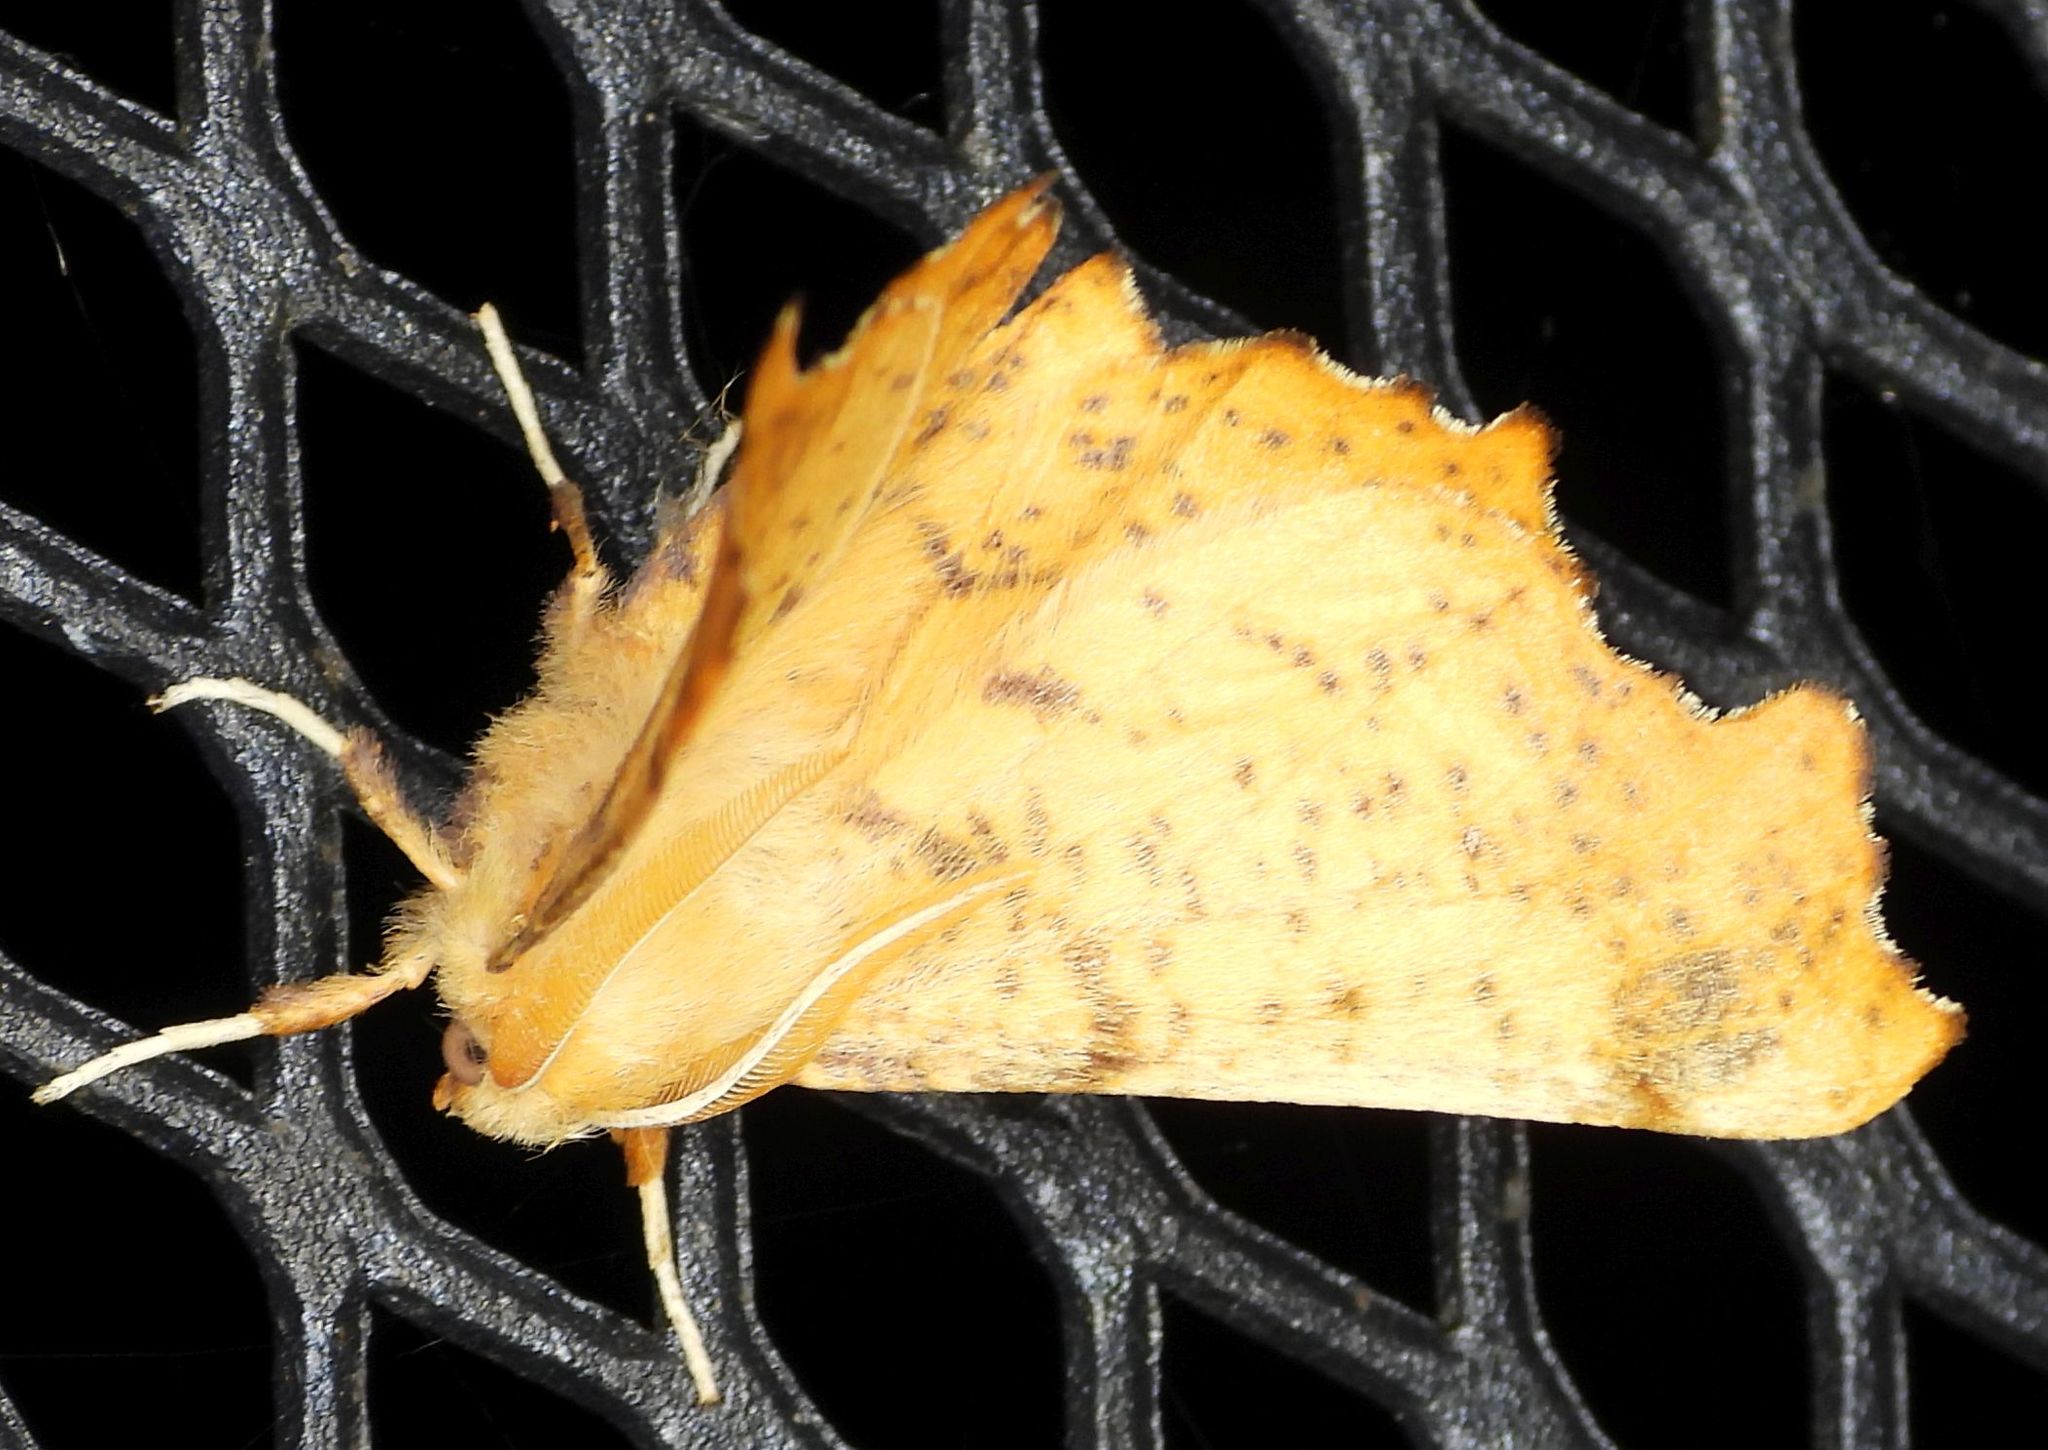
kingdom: Animalia
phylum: Arthropoda
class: Insecta
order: Lepidoptera
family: Geometridae
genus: Ennomos
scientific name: Ennomos magnaria
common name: Maple spanworm
